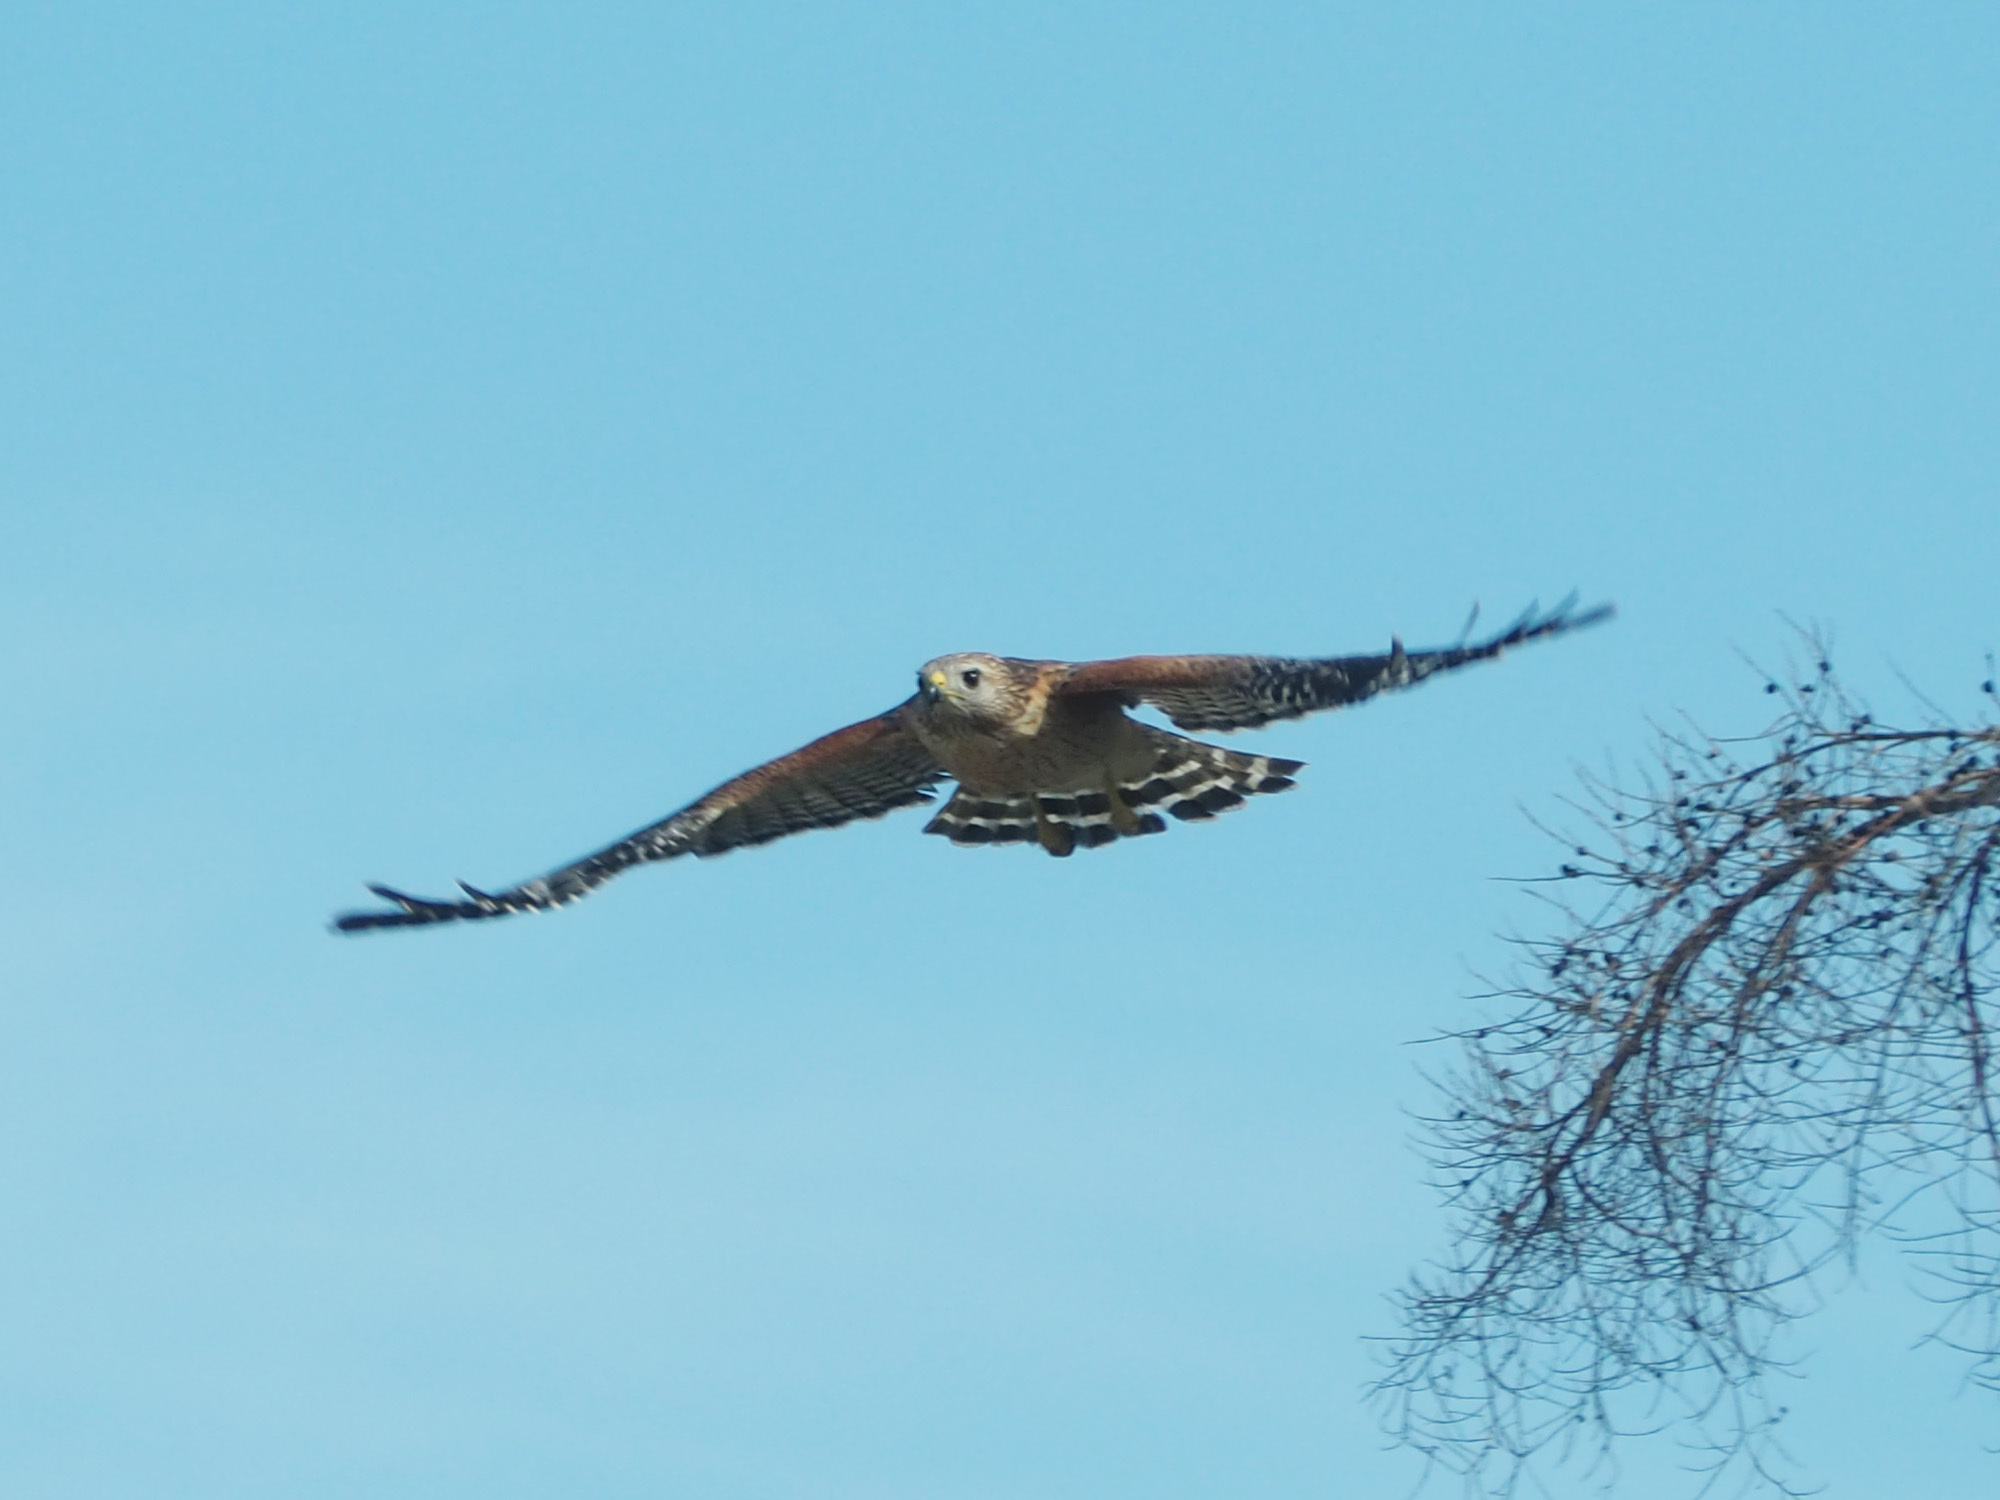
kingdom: Animalia
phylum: Chordata
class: Aves
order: Accipitriformes
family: Accipitridae
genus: Buteo
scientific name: Buteo lineatus
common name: Red-shouldered hawk
